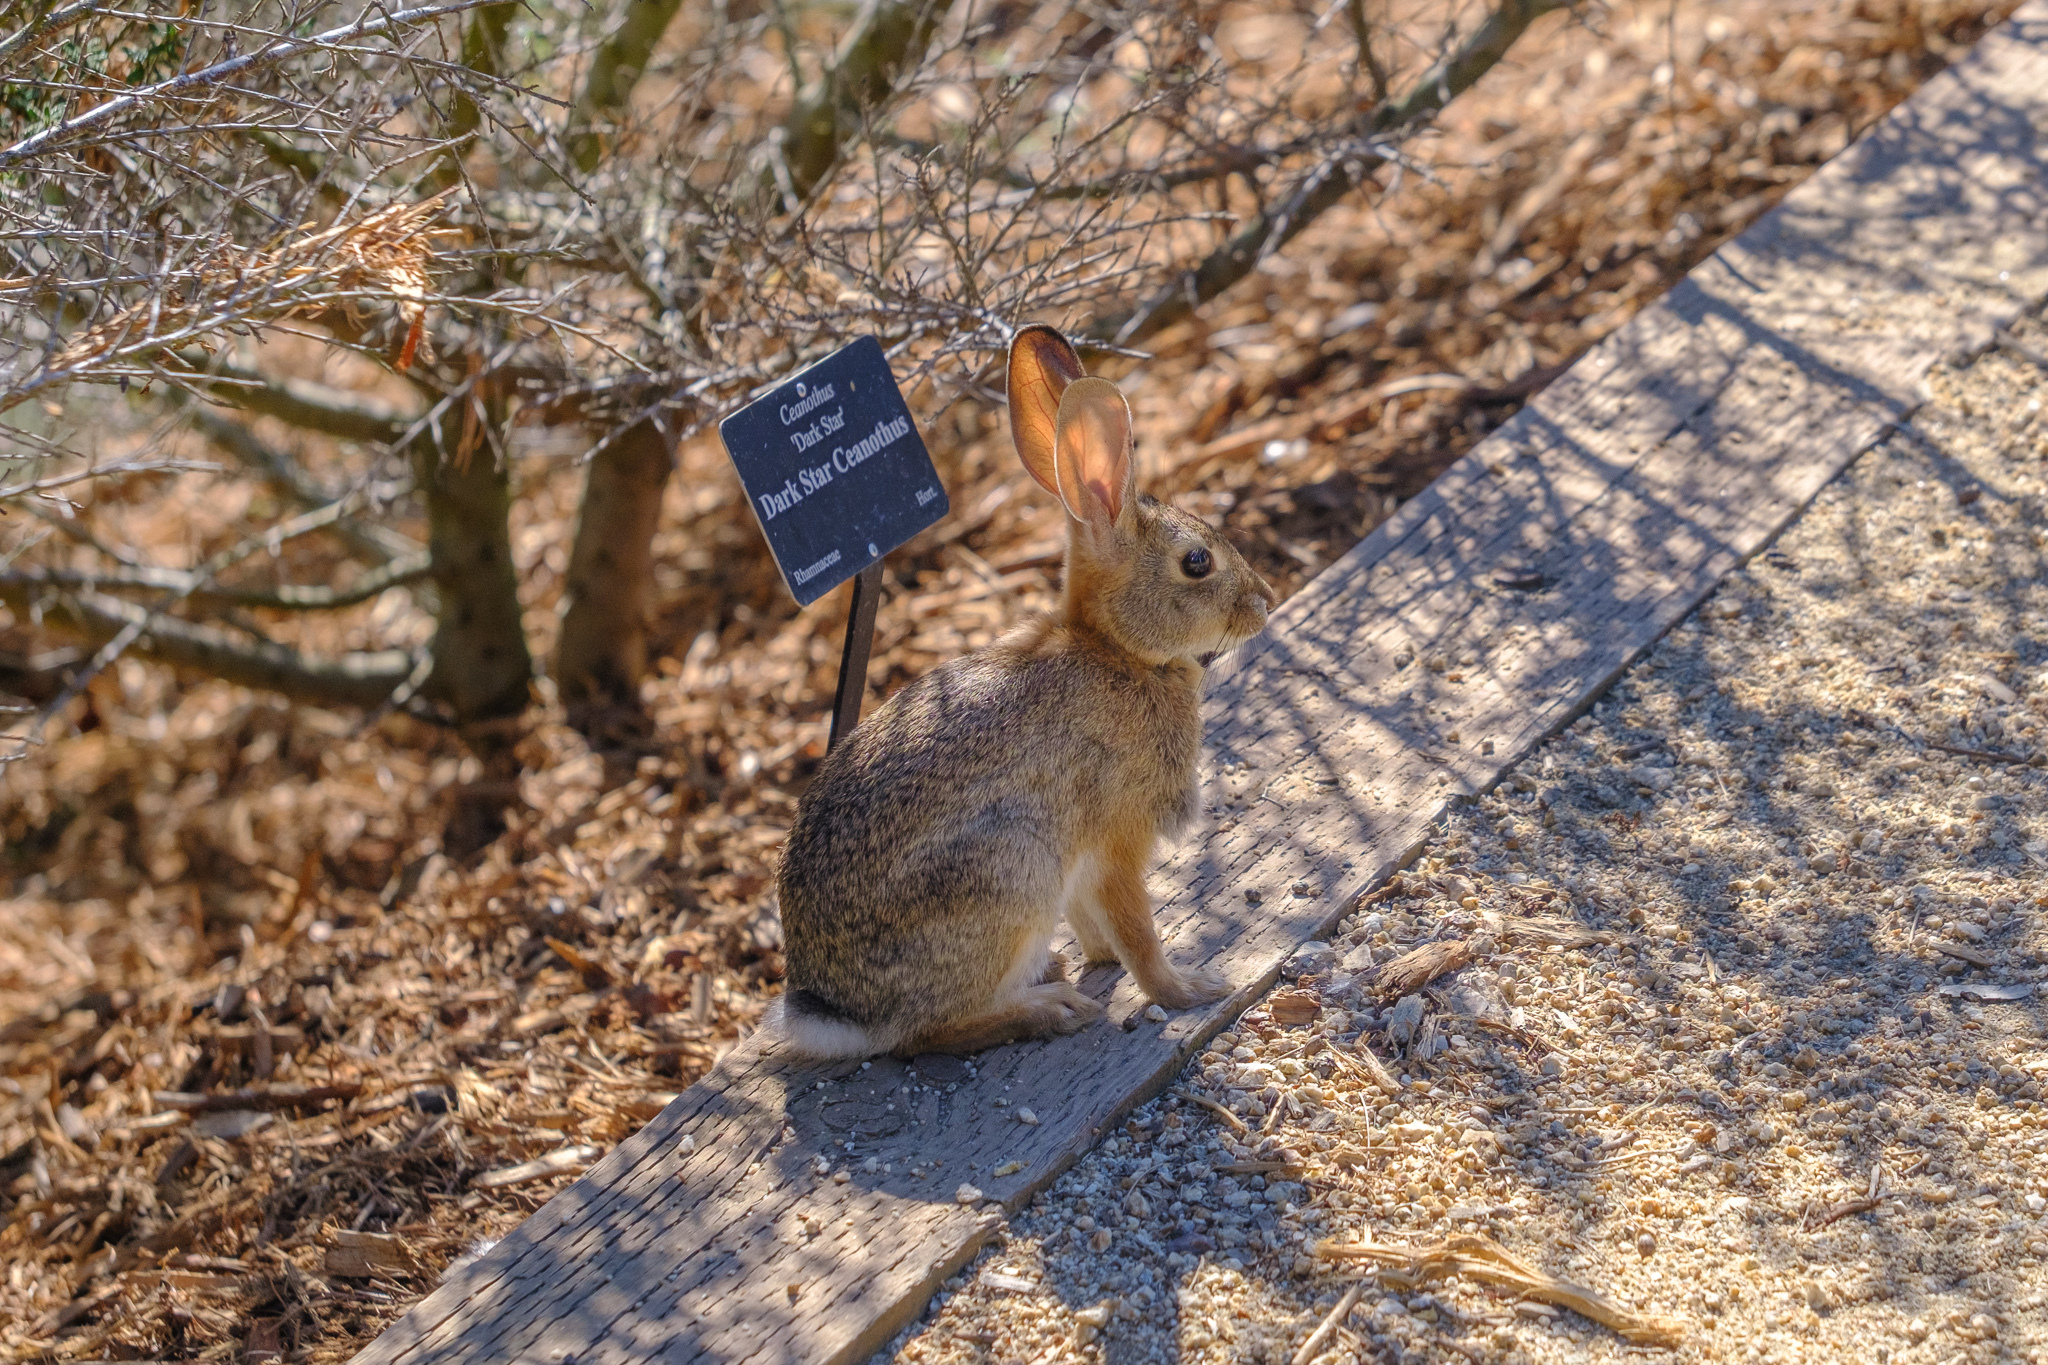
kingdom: Animalia
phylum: Chordata
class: Mammalia
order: Lagomorpha
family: Leporidae
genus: Sylvilagus
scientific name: Sylvilagus audubonii
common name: Desert cottontail
